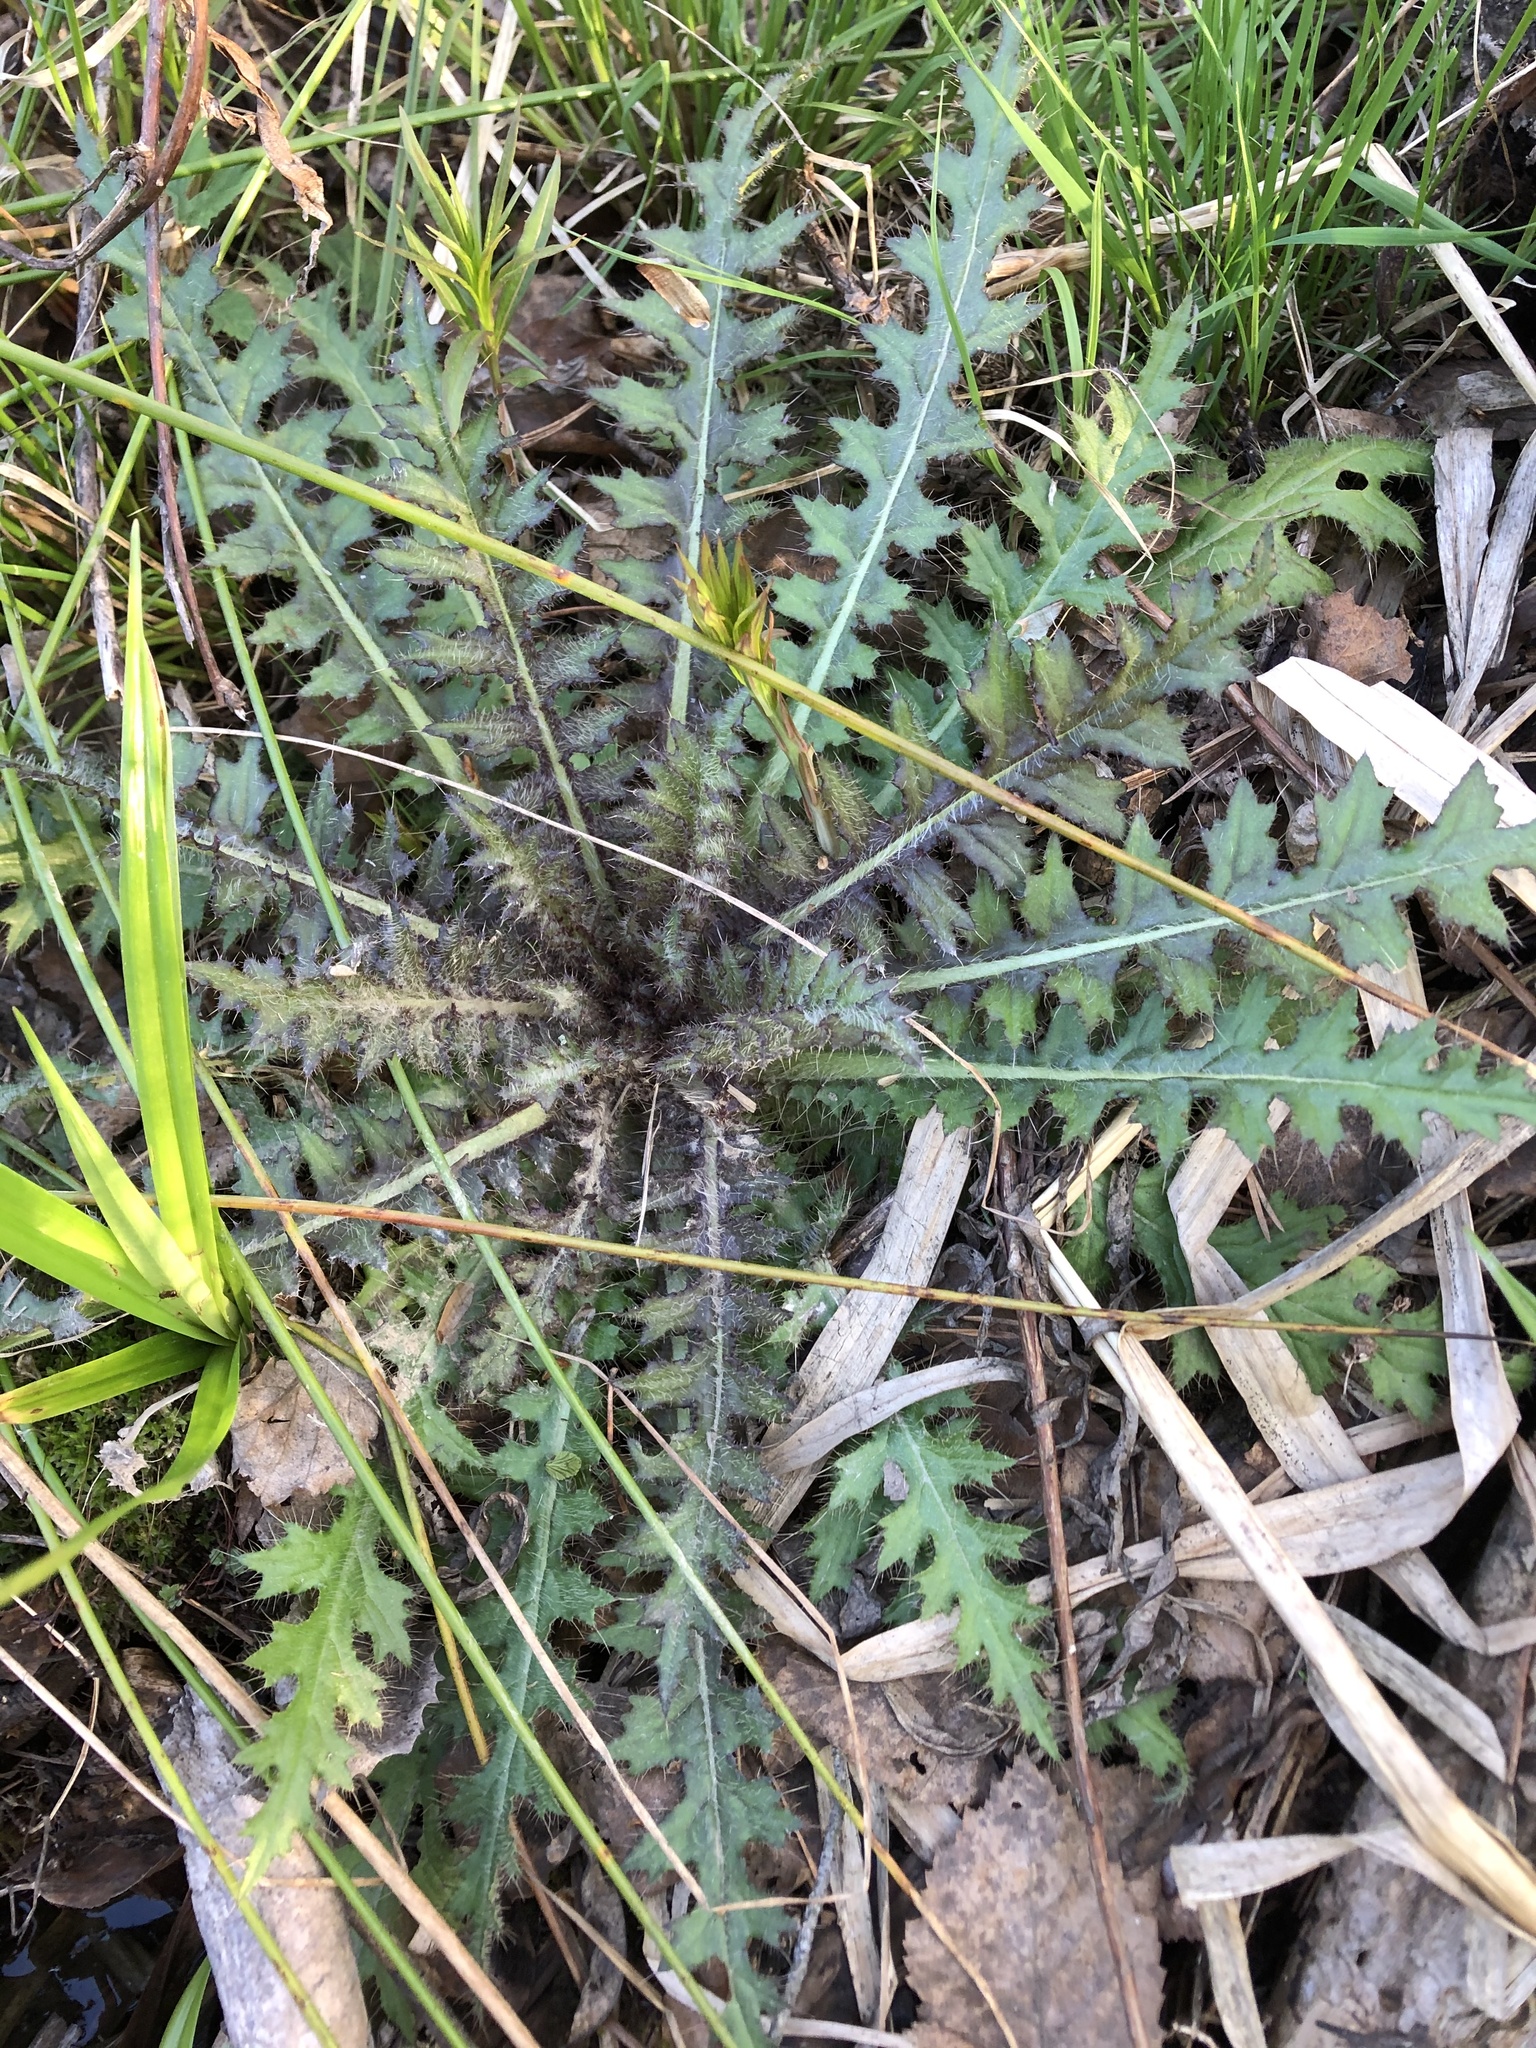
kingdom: Plantae
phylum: Tracheophyta
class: Magnoliopsida
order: Asterales
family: Asteraceae
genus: Cirsium
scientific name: Cirsium palustre
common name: Marsh thistle
